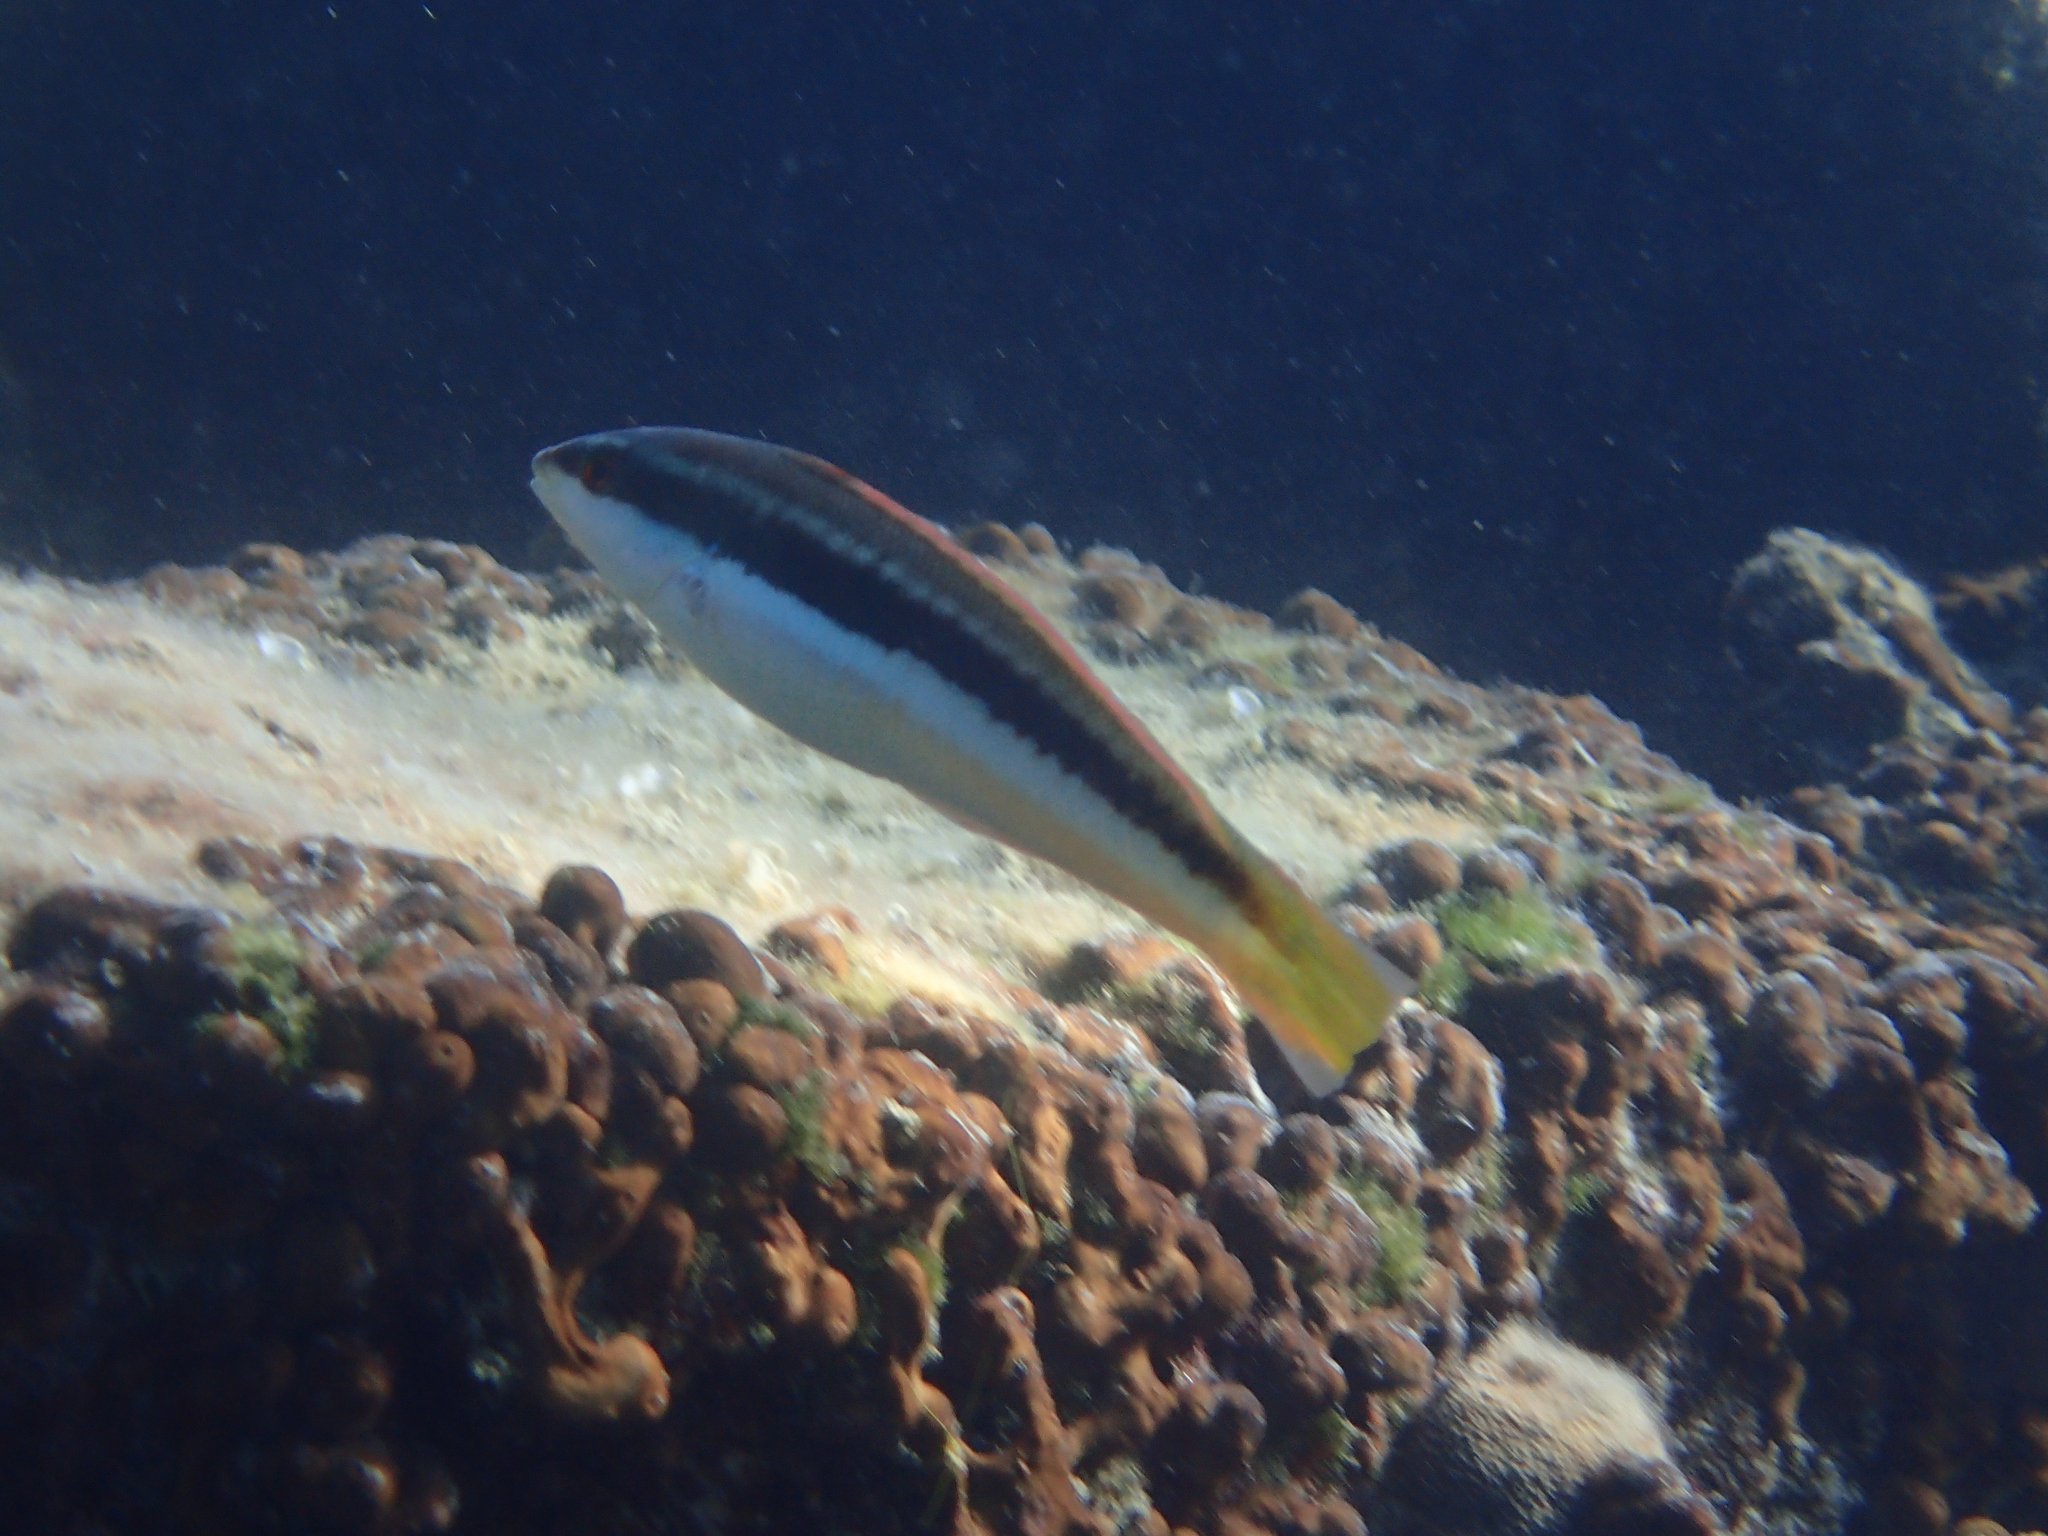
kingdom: Animalia
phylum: Chordata
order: Perciformes
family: Labridae
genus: Coris
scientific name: Coris julis
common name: Rainbow wrasse
